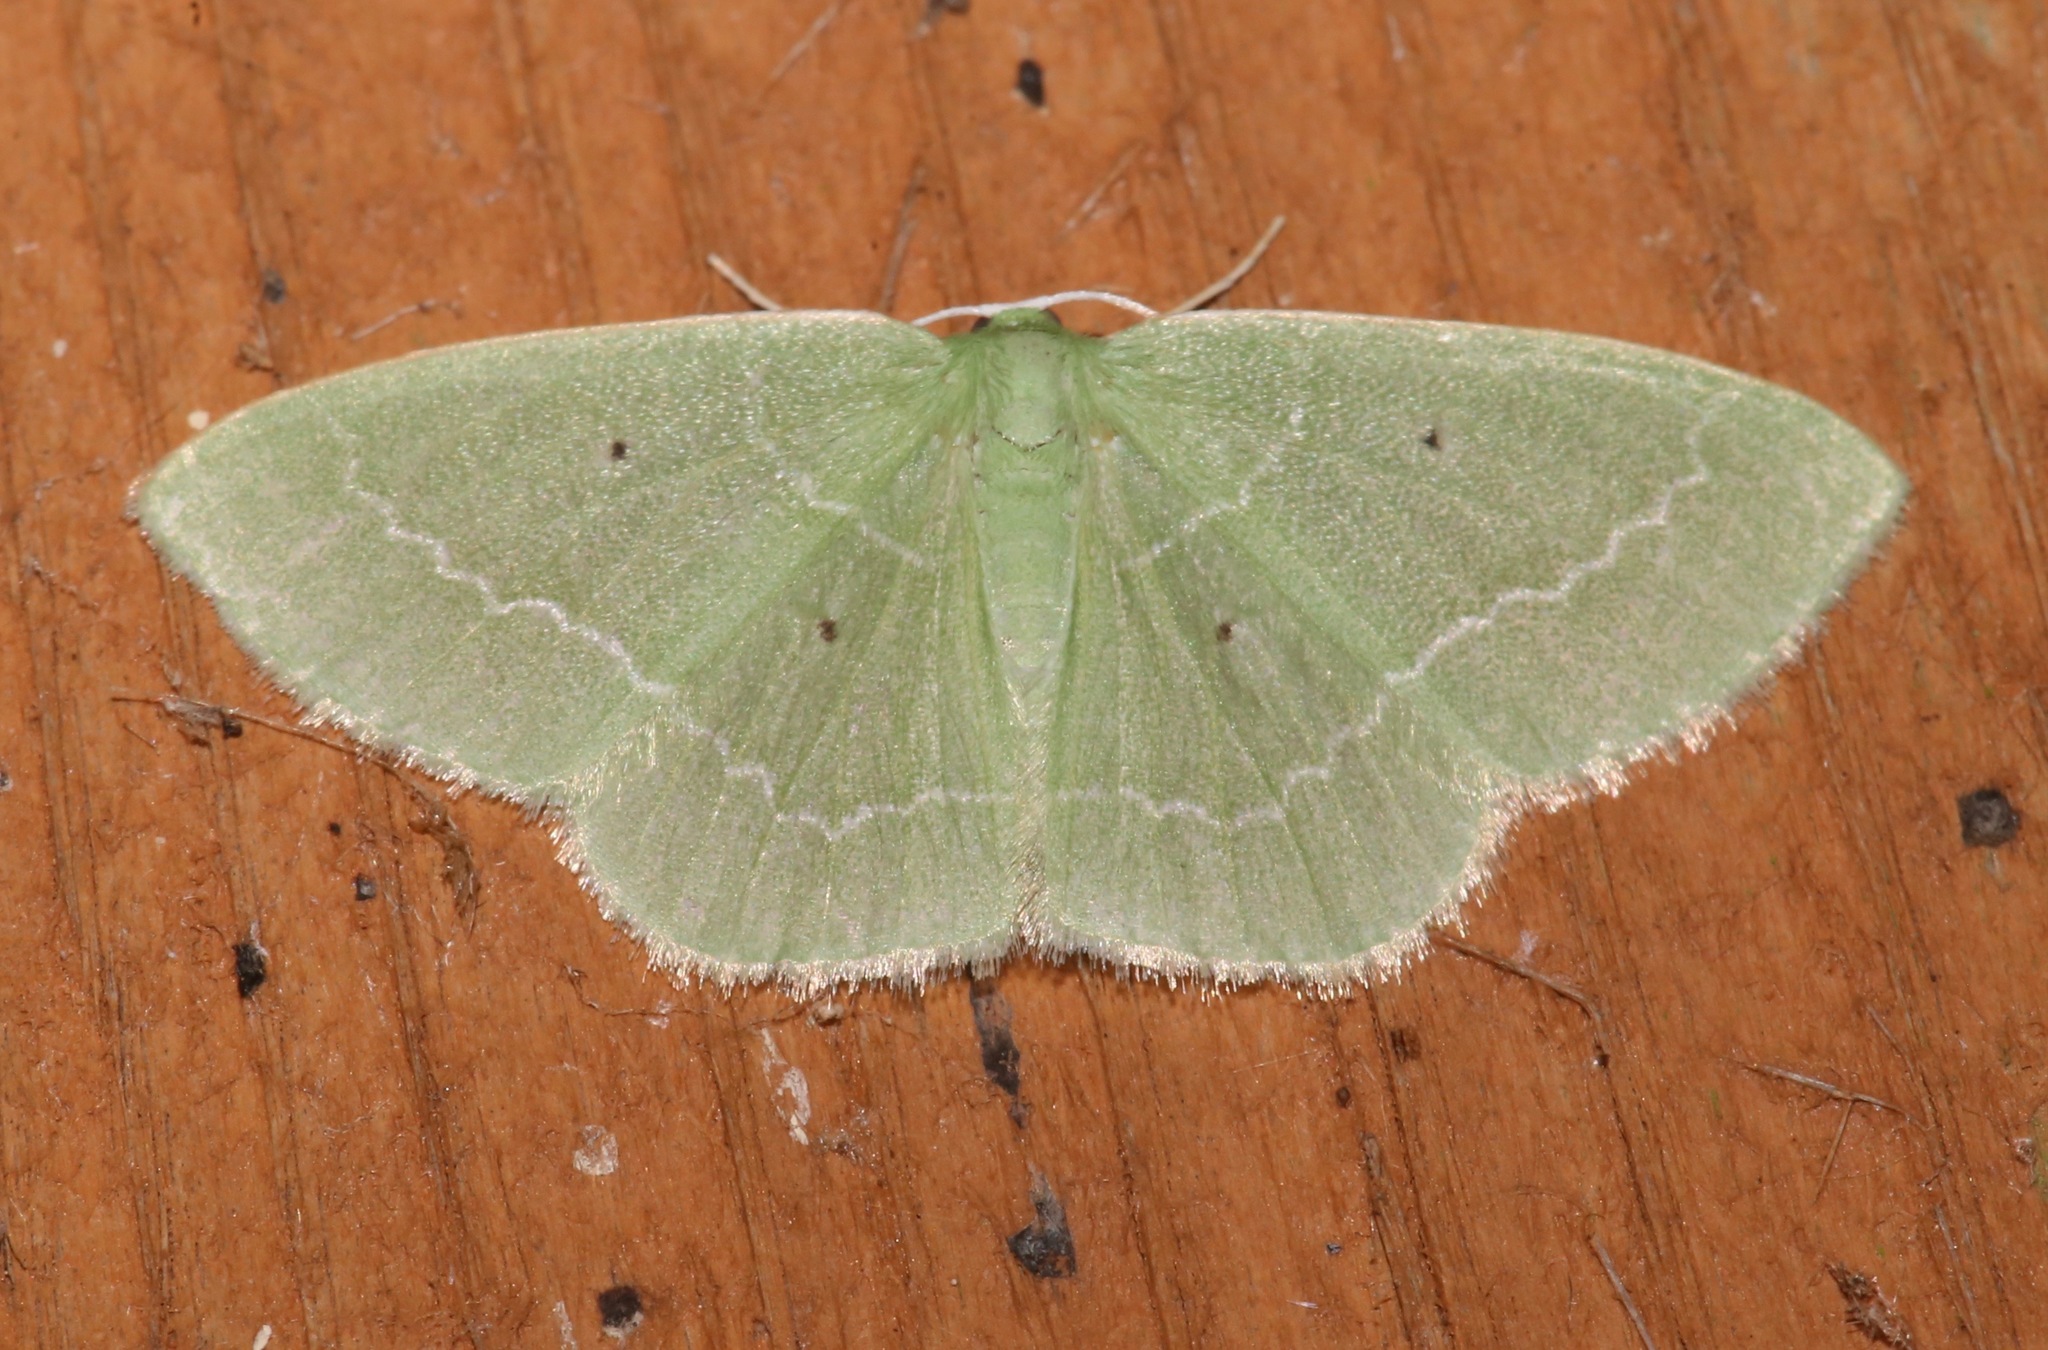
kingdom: Animalia
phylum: Arthropoda
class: Insecta
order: Lepidoptera
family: Geometridae
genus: Nemoria
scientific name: Nemoria elfa
